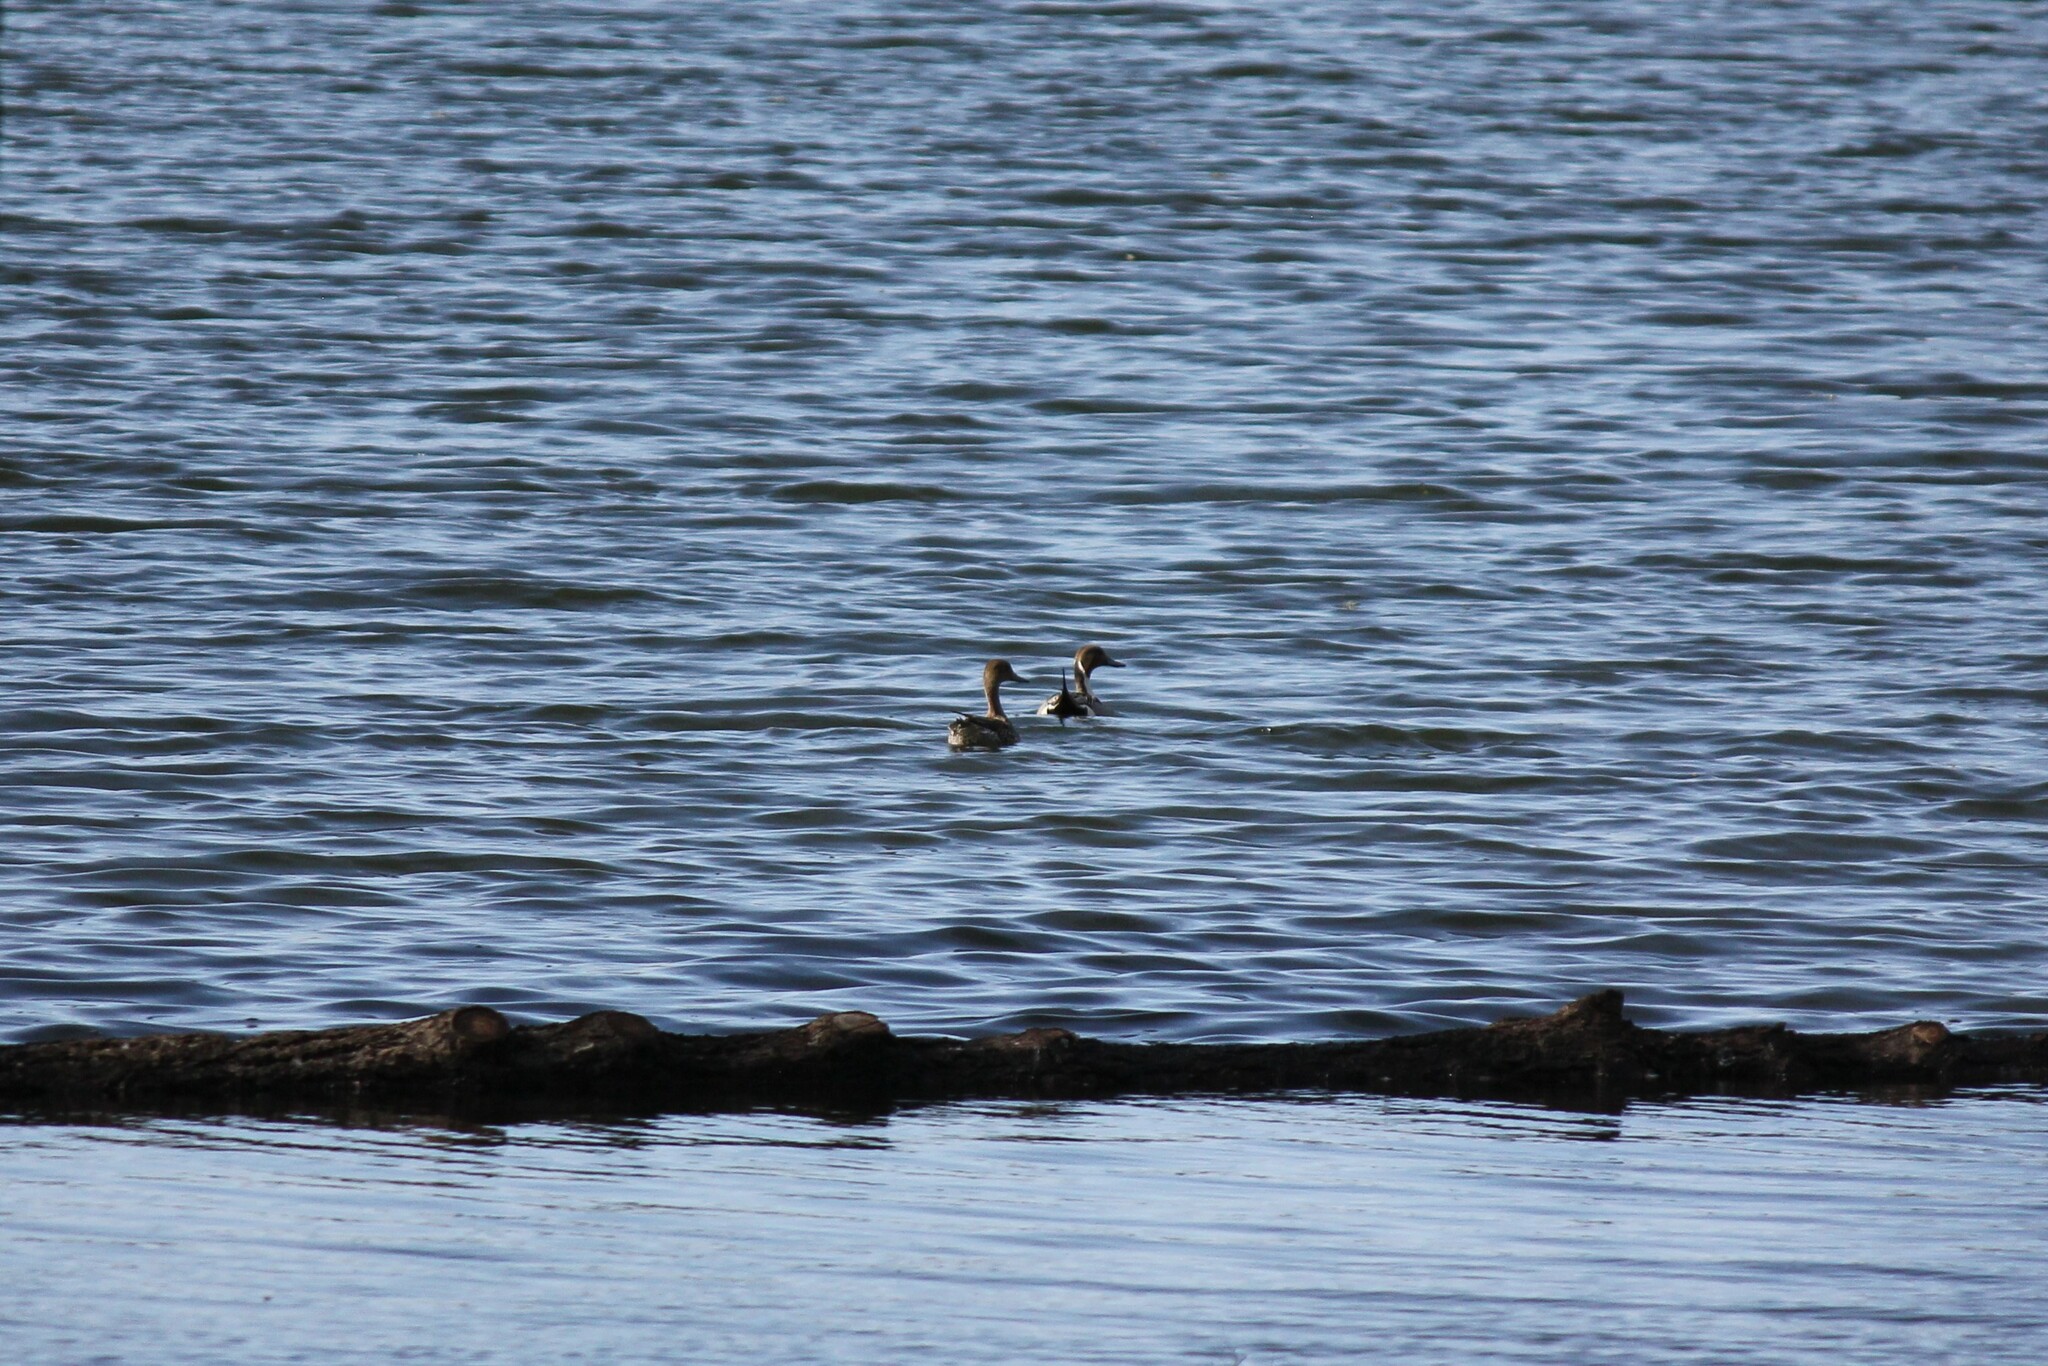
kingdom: Animalia
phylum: Chordata
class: Aves
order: Anseriformes
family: Anatidae
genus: Anas
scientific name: Anas acuta
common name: Northern pintail
